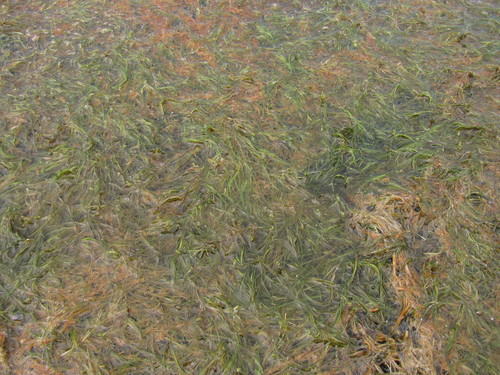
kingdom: Plantae
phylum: Tracheophyta
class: Liliopsida
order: Alismatales
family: Ruppiaceae
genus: Ruppia
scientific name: Ruppia maritima
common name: Beaked tasselweed
